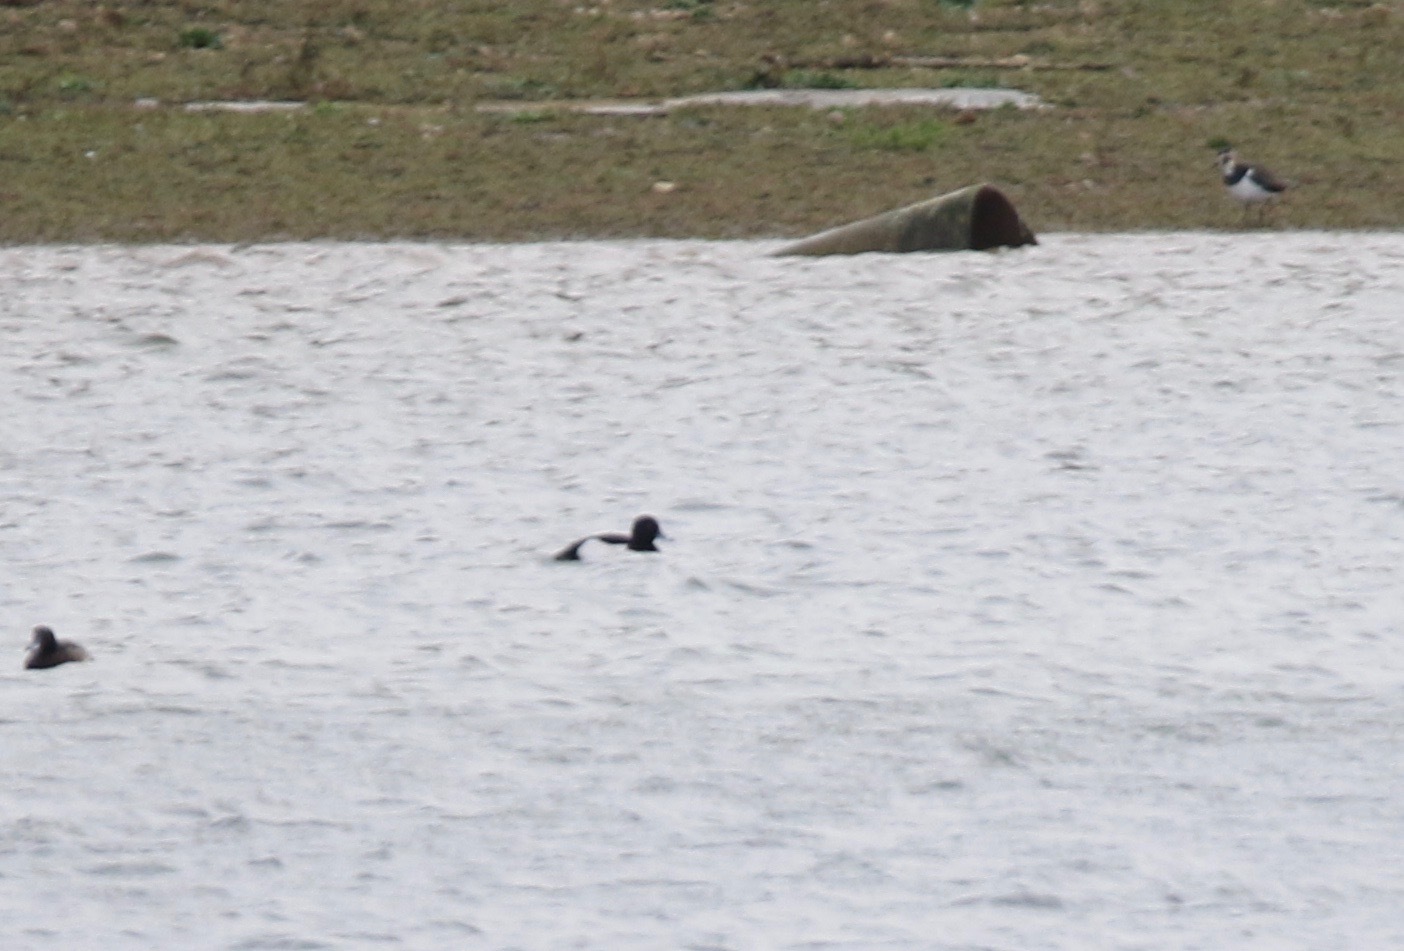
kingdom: Animalia
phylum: Chordata
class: Aves
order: Anseriformes
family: Anatidae
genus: Aythya
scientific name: Aythya fuligula
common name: Tufted duck
